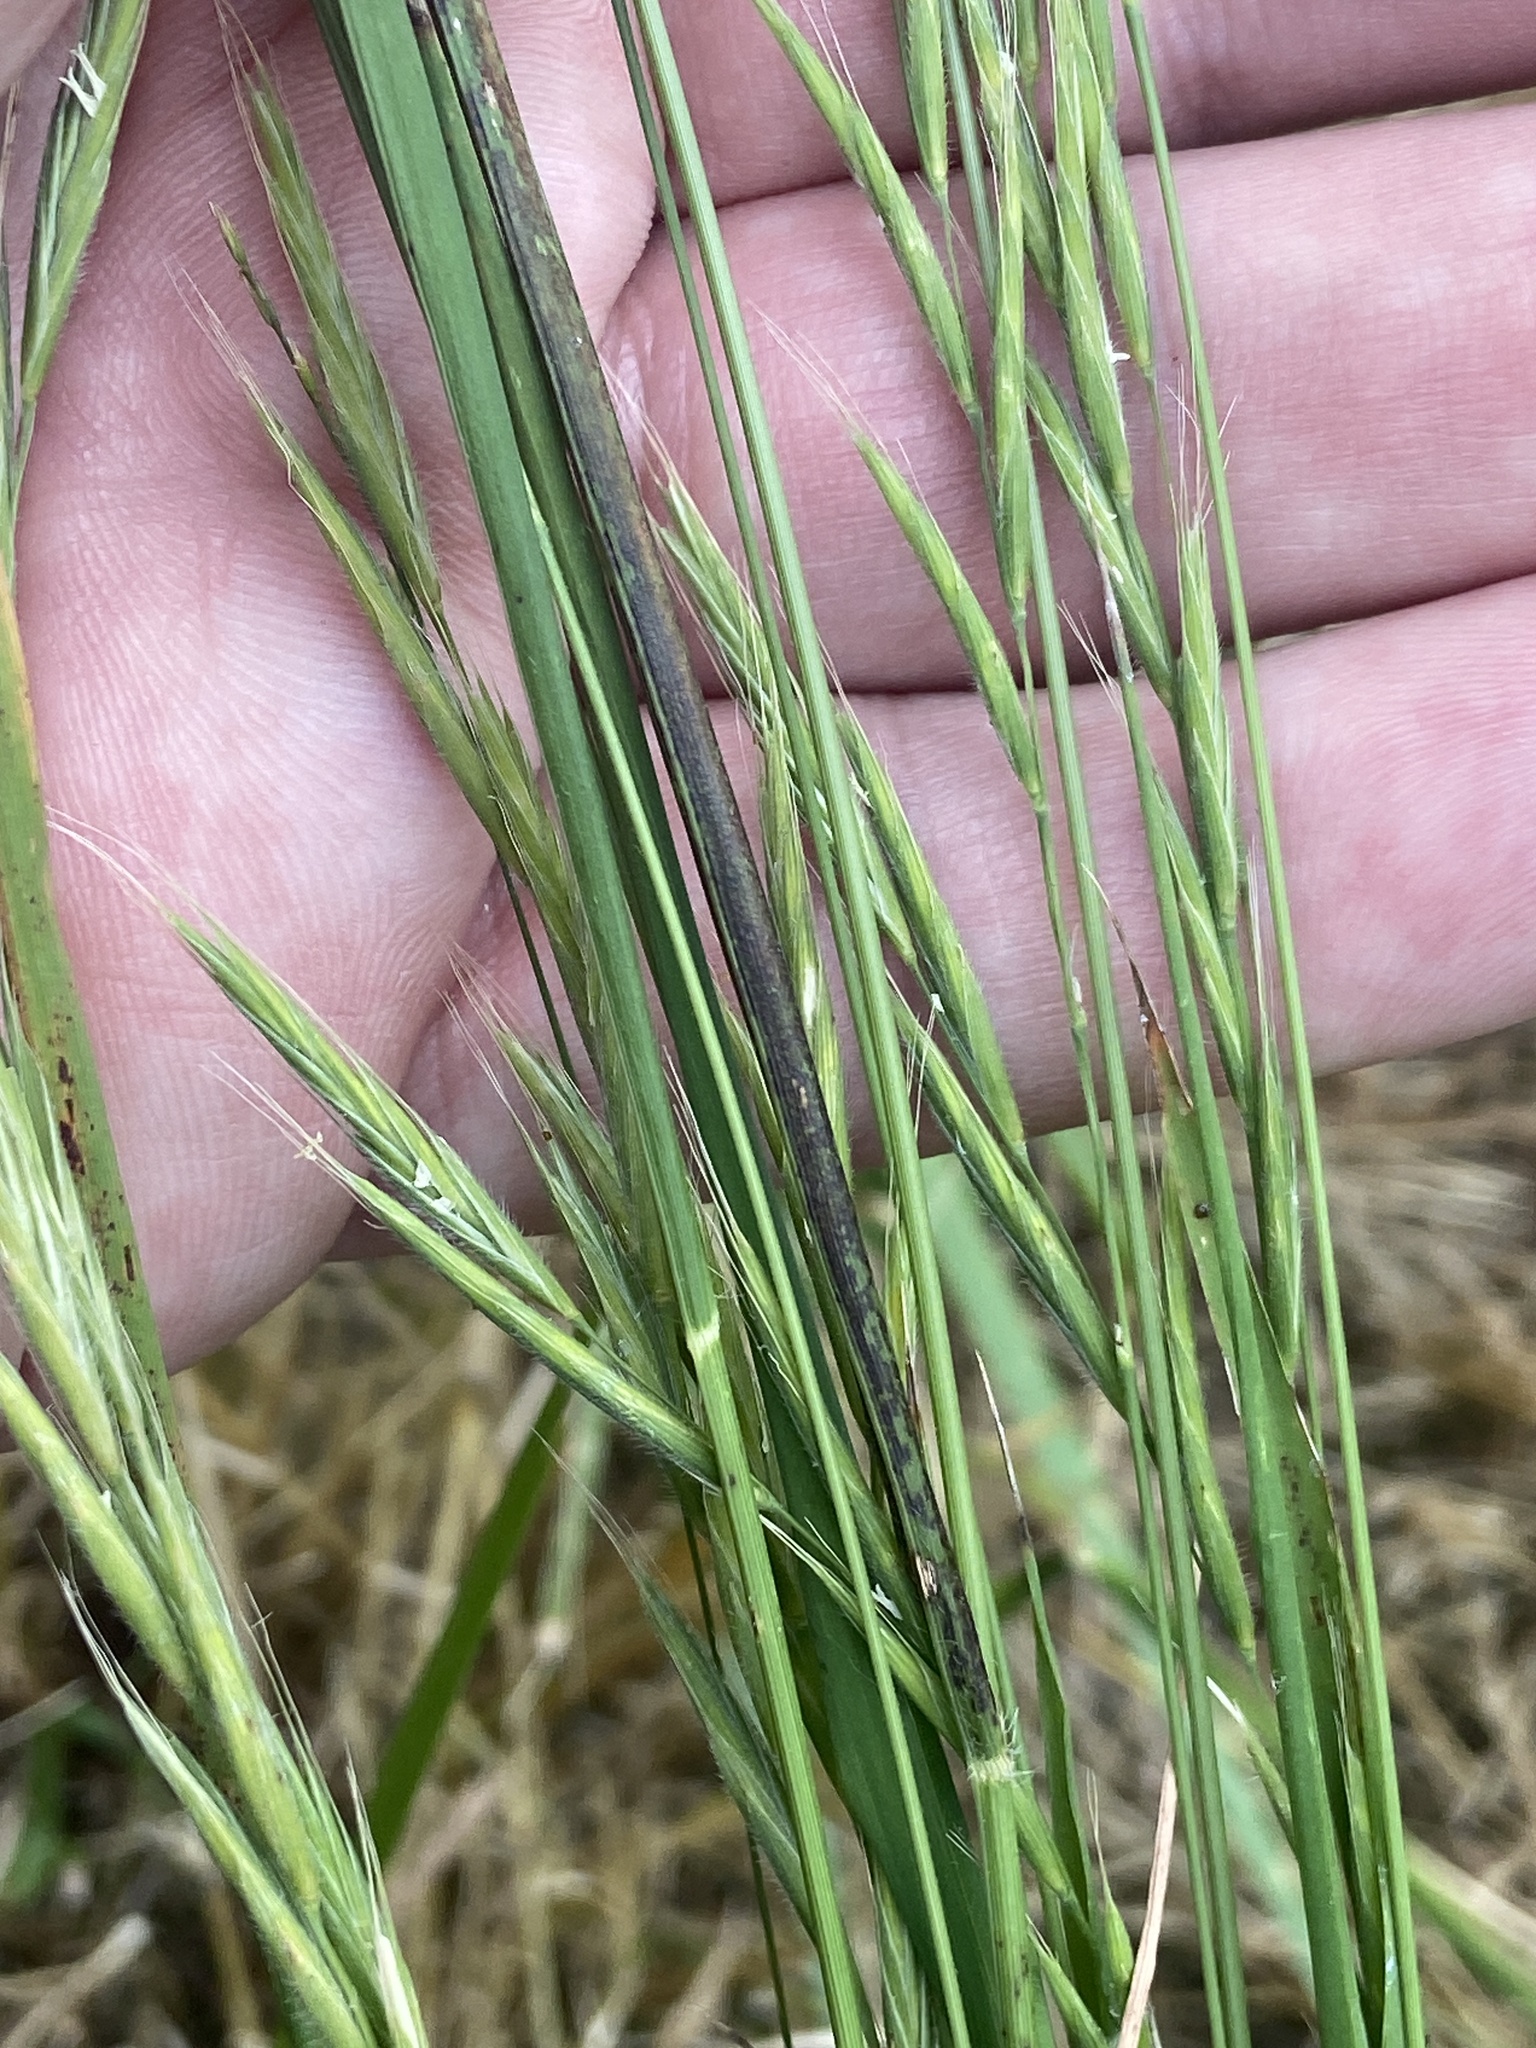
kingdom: Plantae
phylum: Tracheophyta
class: Liliopsida
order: Poales
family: Poaceae
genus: Brachypodium
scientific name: Brachypodium sylvaticum
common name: False-brome
